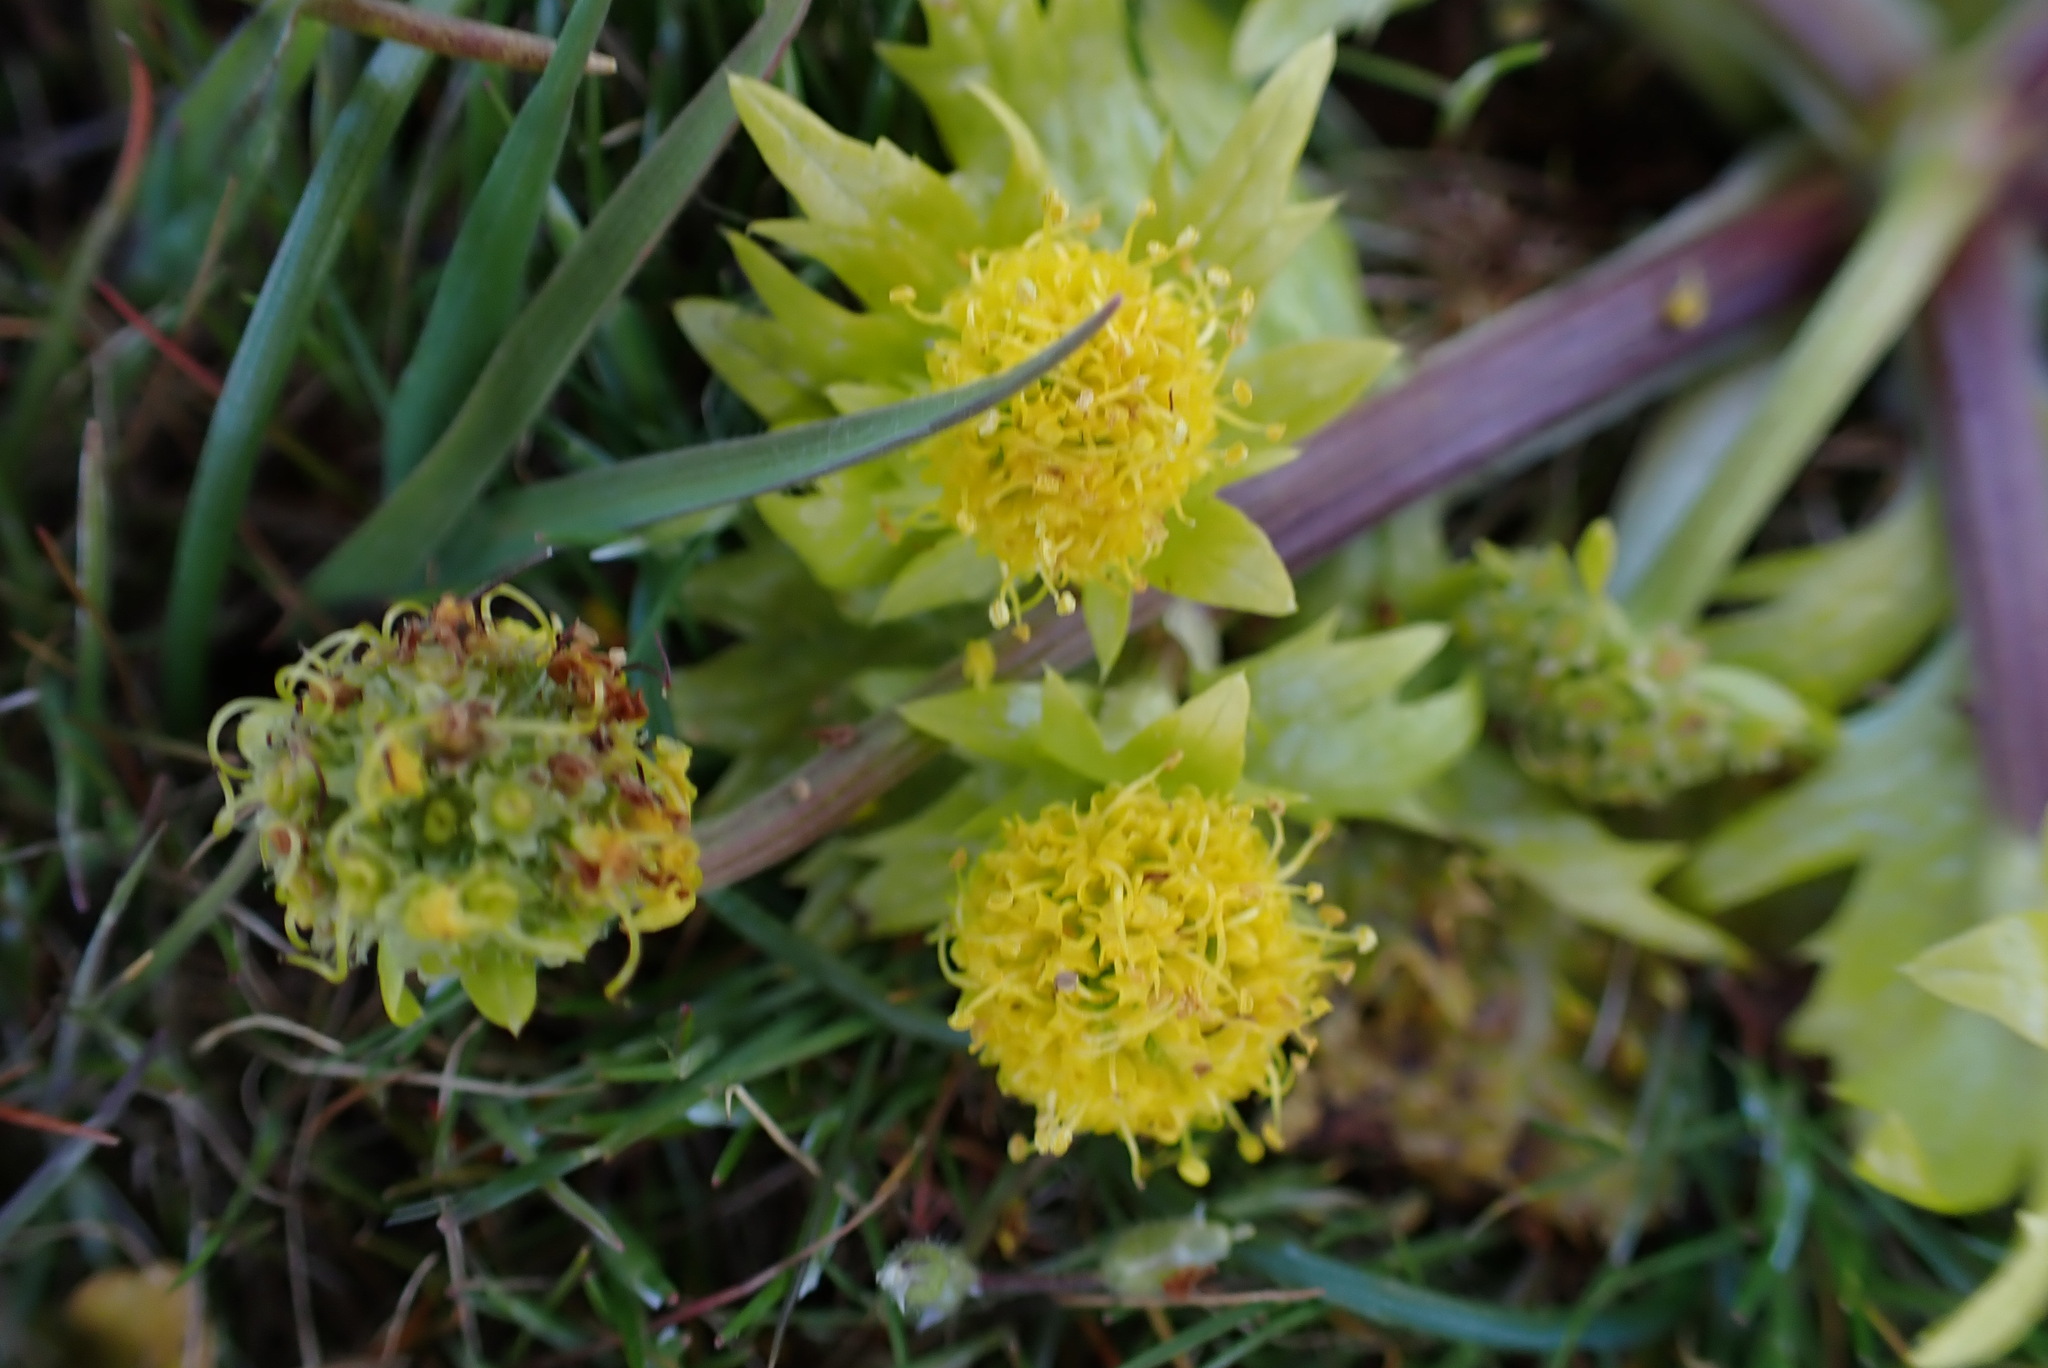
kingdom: Plantae
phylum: Tracheophyta
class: Magnoliopsida
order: Apiales
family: Apiaceae
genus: Sanicula
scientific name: Sanicula arctopoides
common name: Footsteps-of-spring
